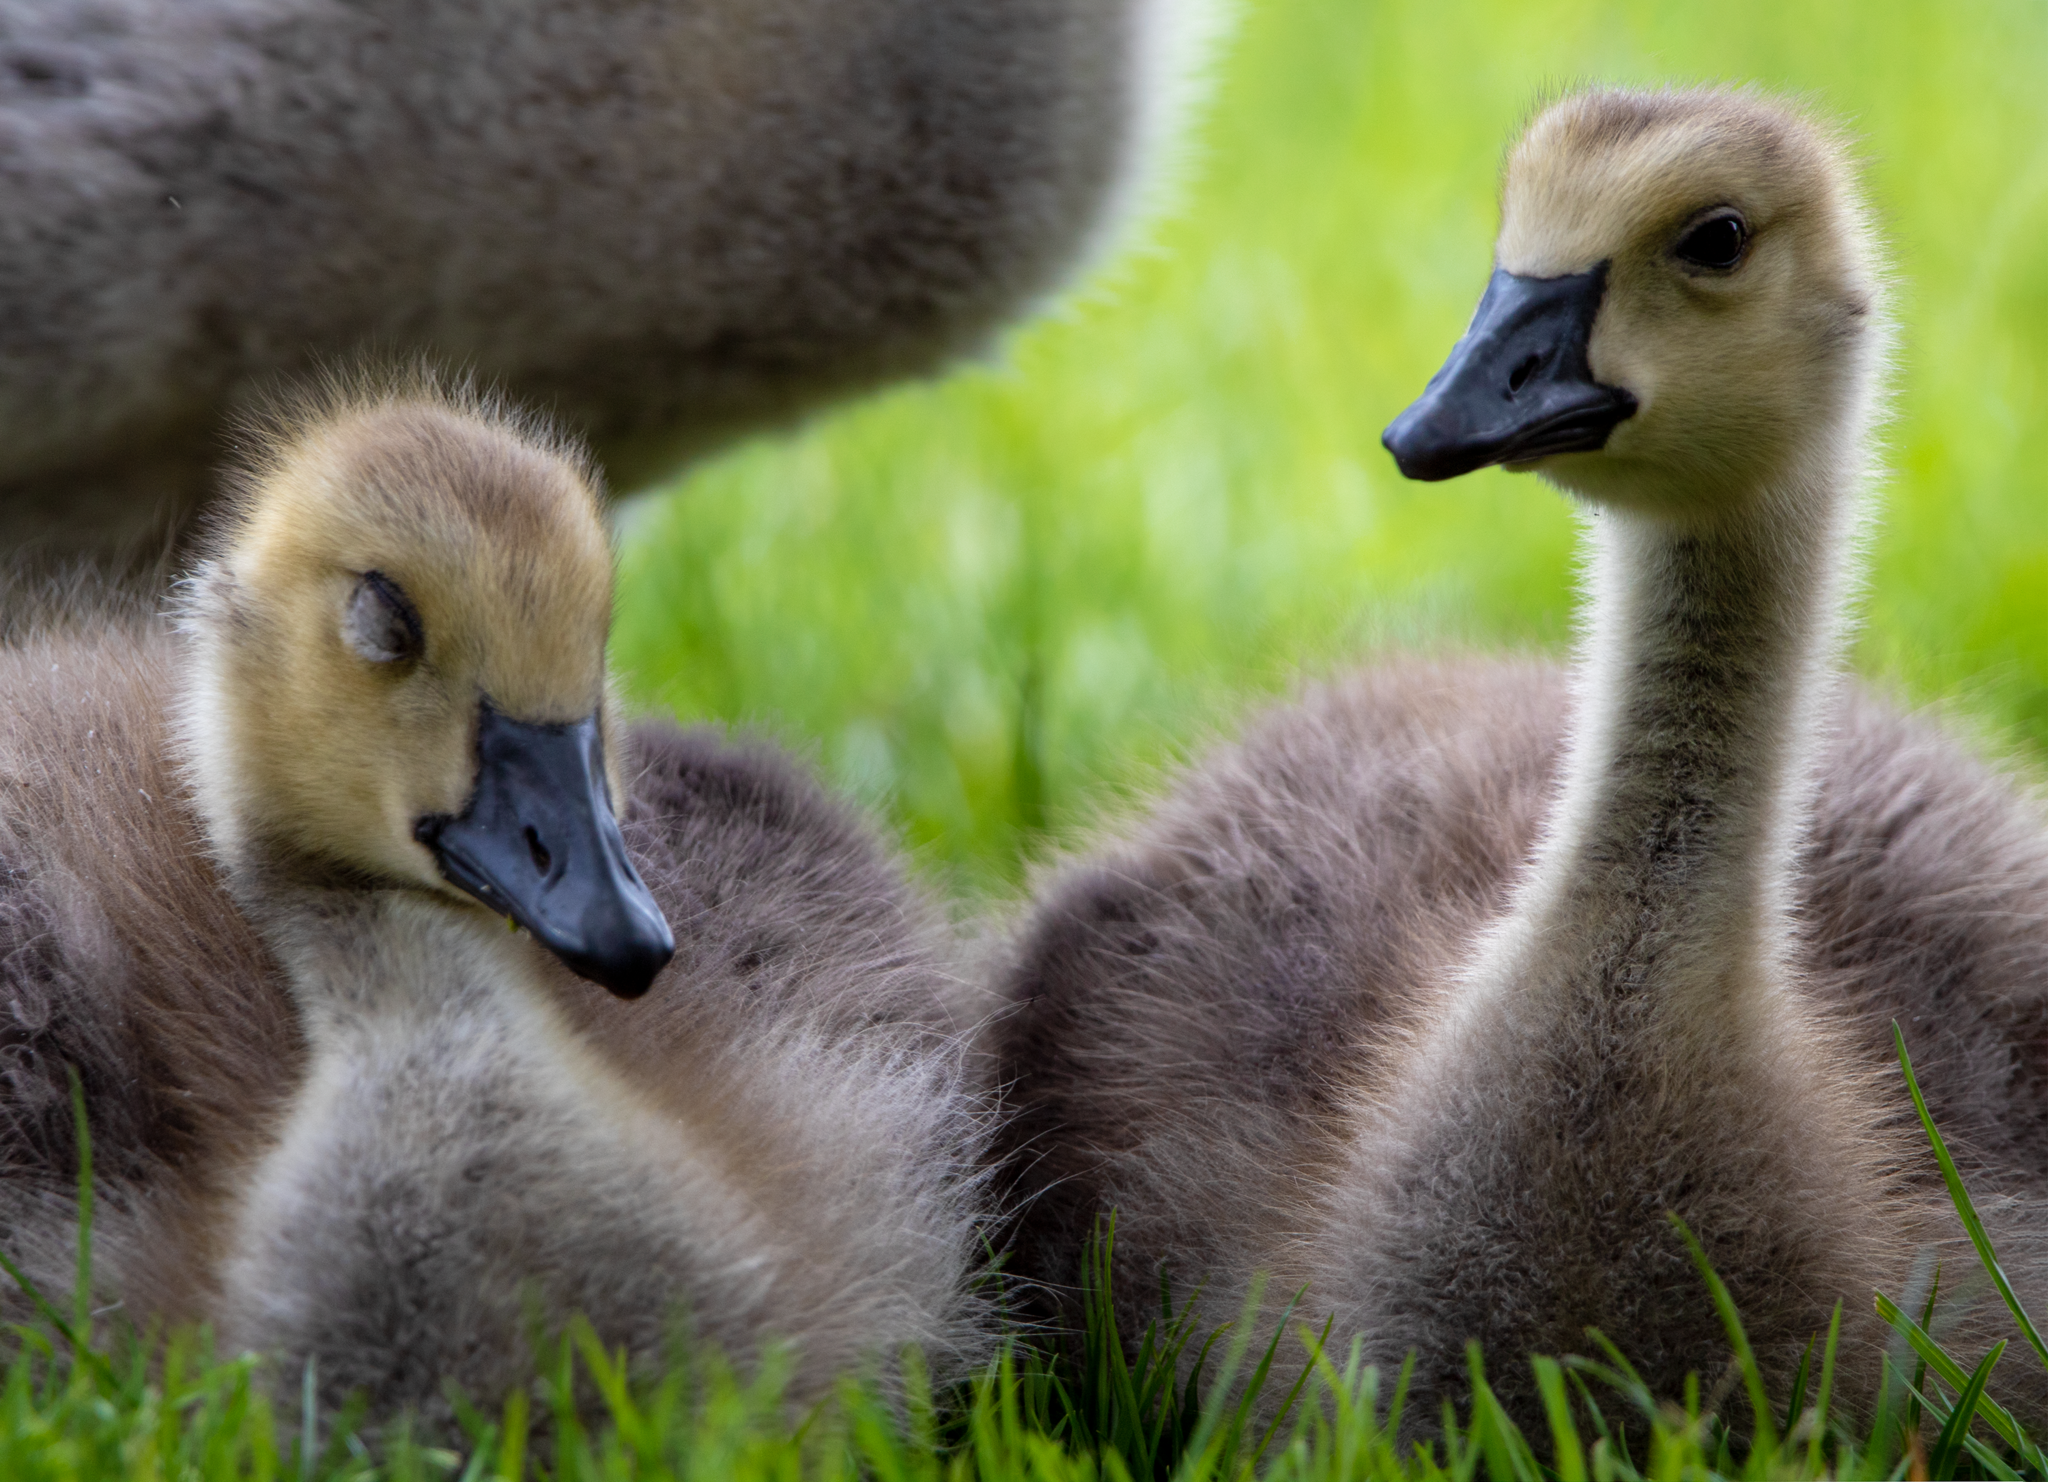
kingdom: Animalia
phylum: Chordata
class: Aves
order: Anseriformes
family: Anatidae
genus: Branta
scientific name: Branta canadensis
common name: Canada goose
